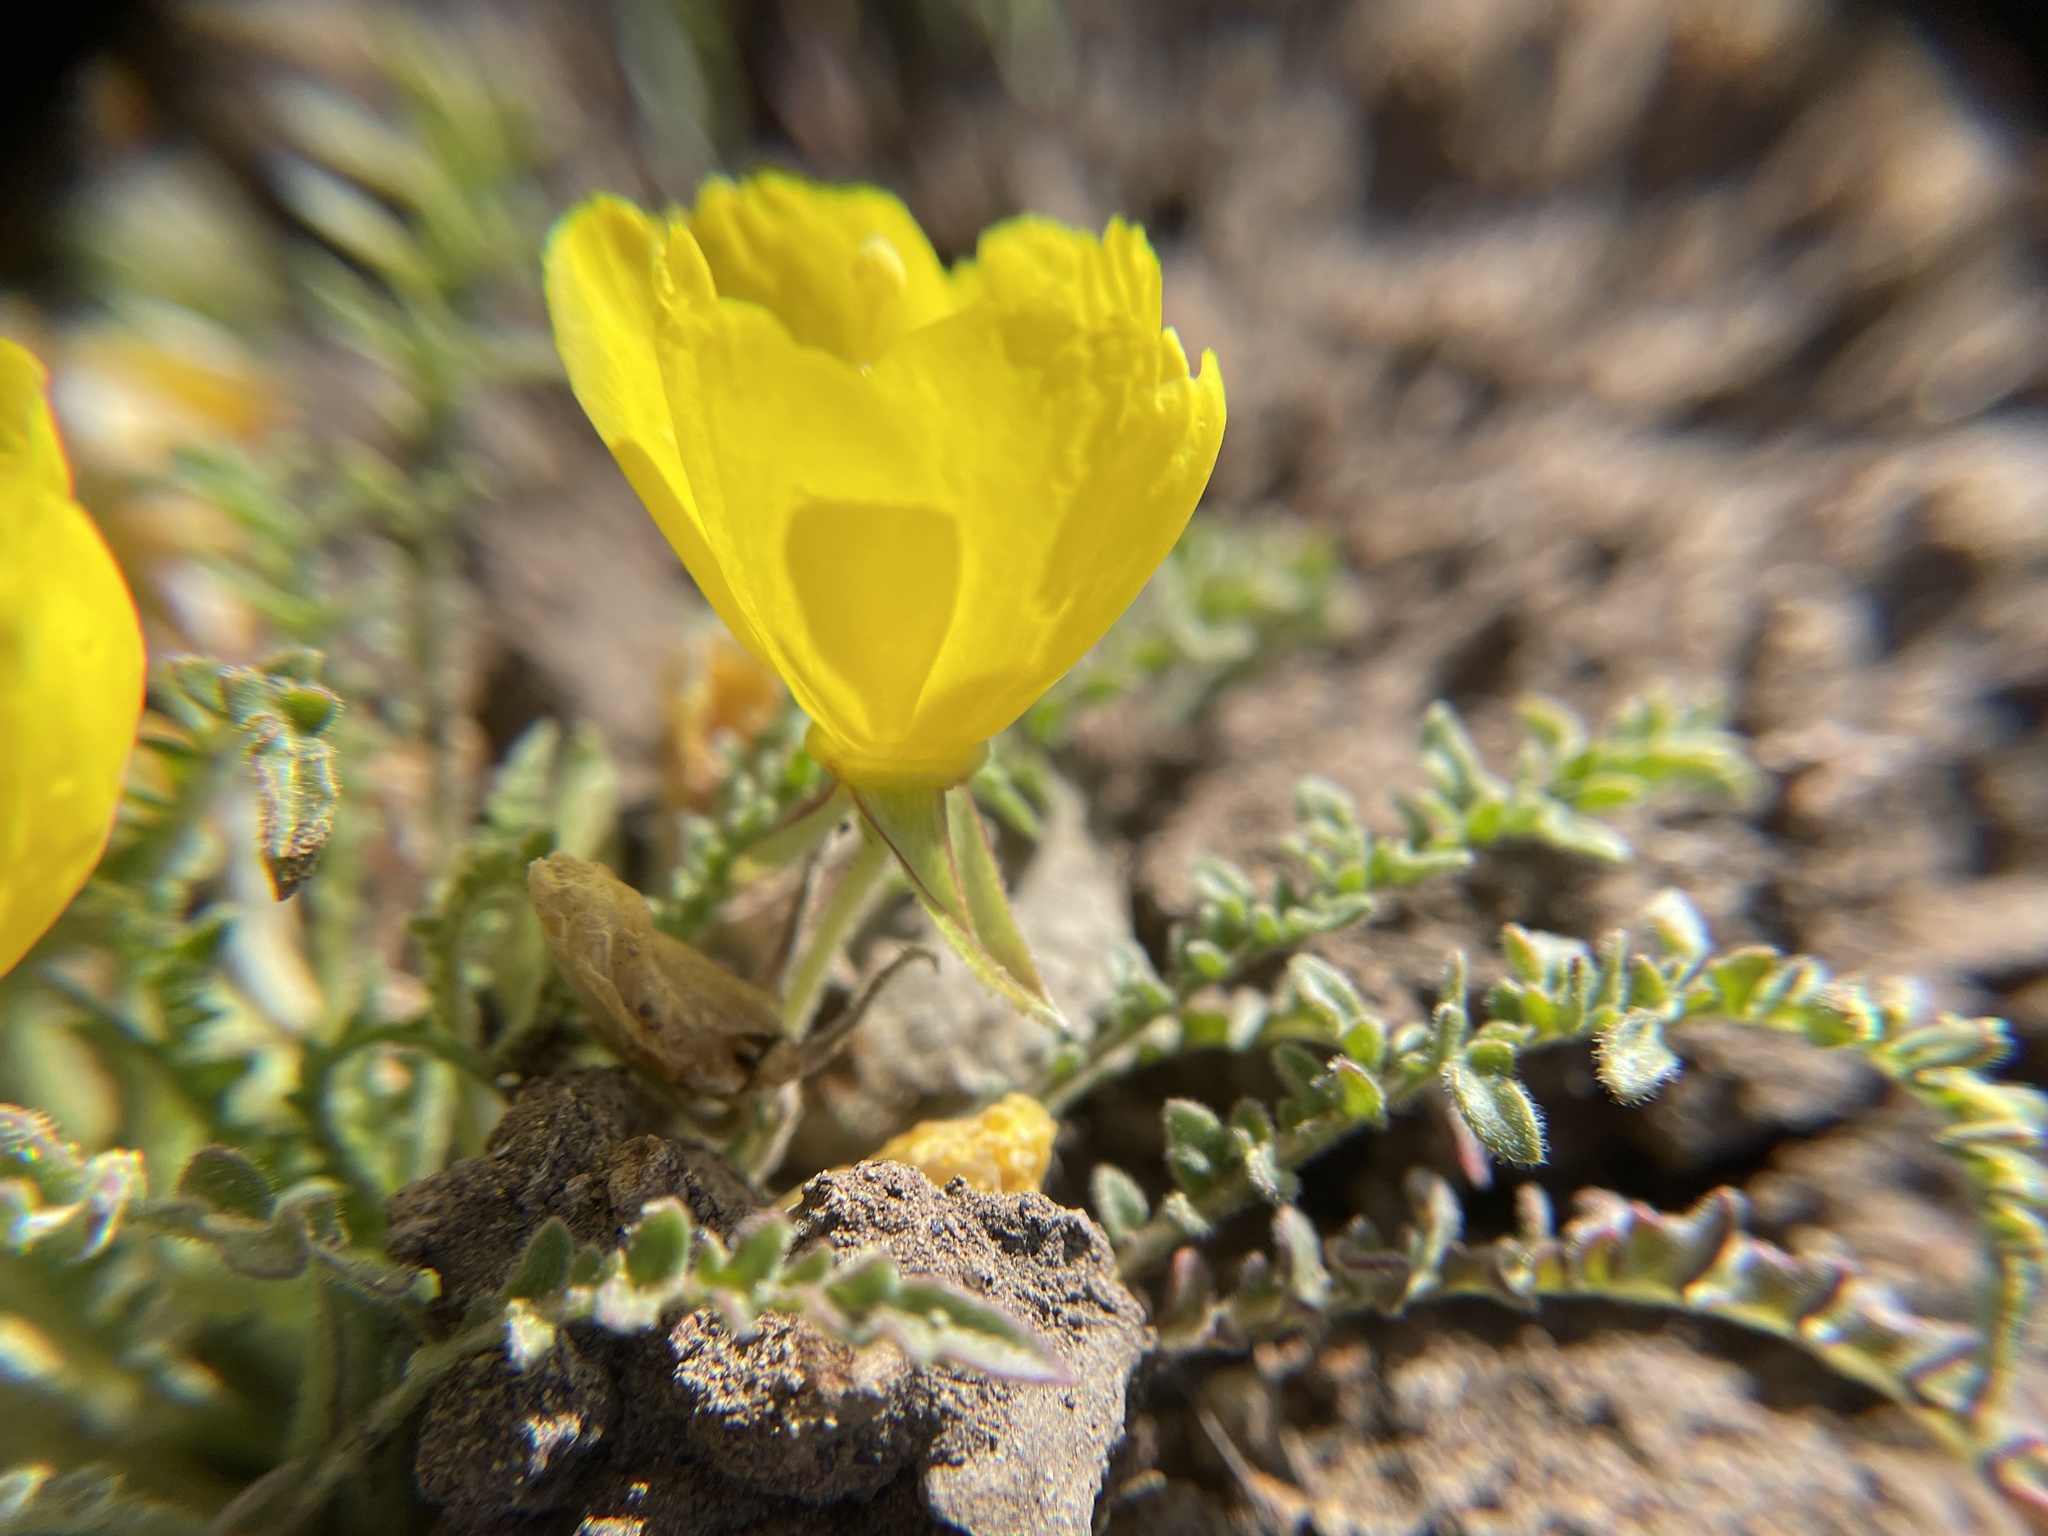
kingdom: Plantae
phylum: Tracheophyta
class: Magnoliopsida
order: Myrtales
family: Onagraceae
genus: Taraxia
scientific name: Taraxia tanacetifolia
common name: Tansyleaf evening primrose
